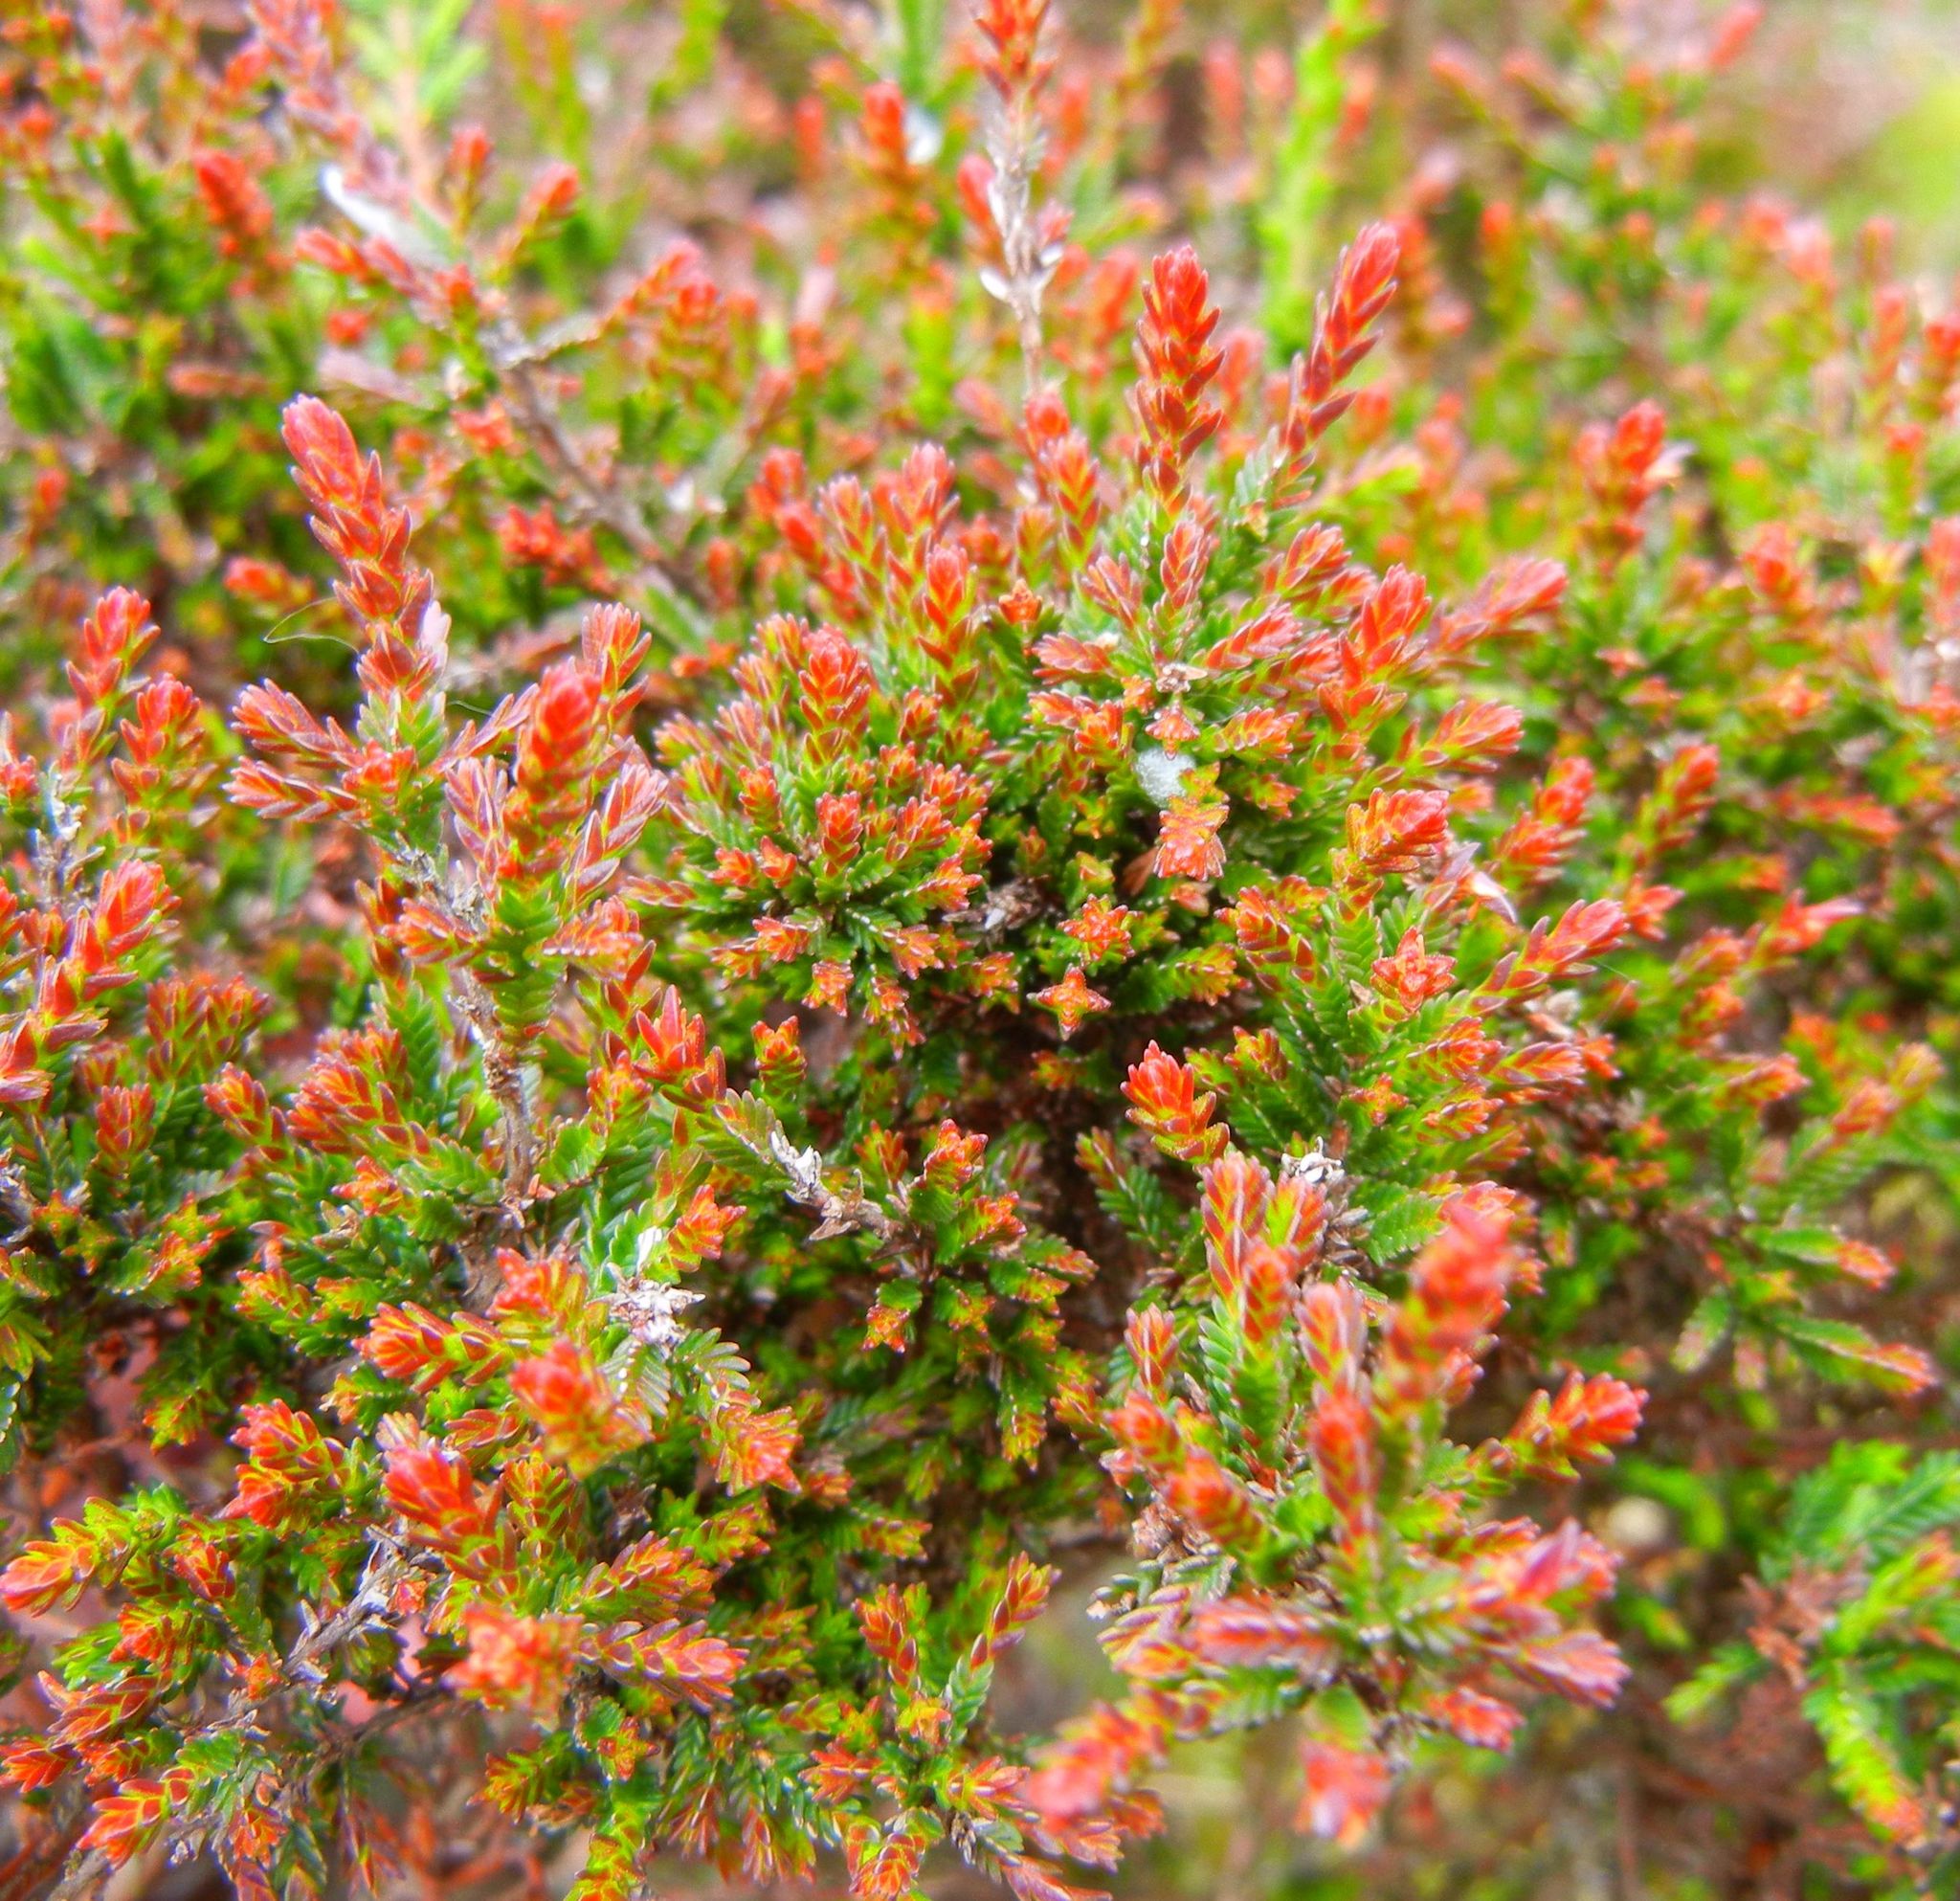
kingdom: Plantae
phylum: Tracheophyta
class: Magnoliopsida
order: Ericales
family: Ericaceae
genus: Calluna
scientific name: Calluna vulgaris
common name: Heather
